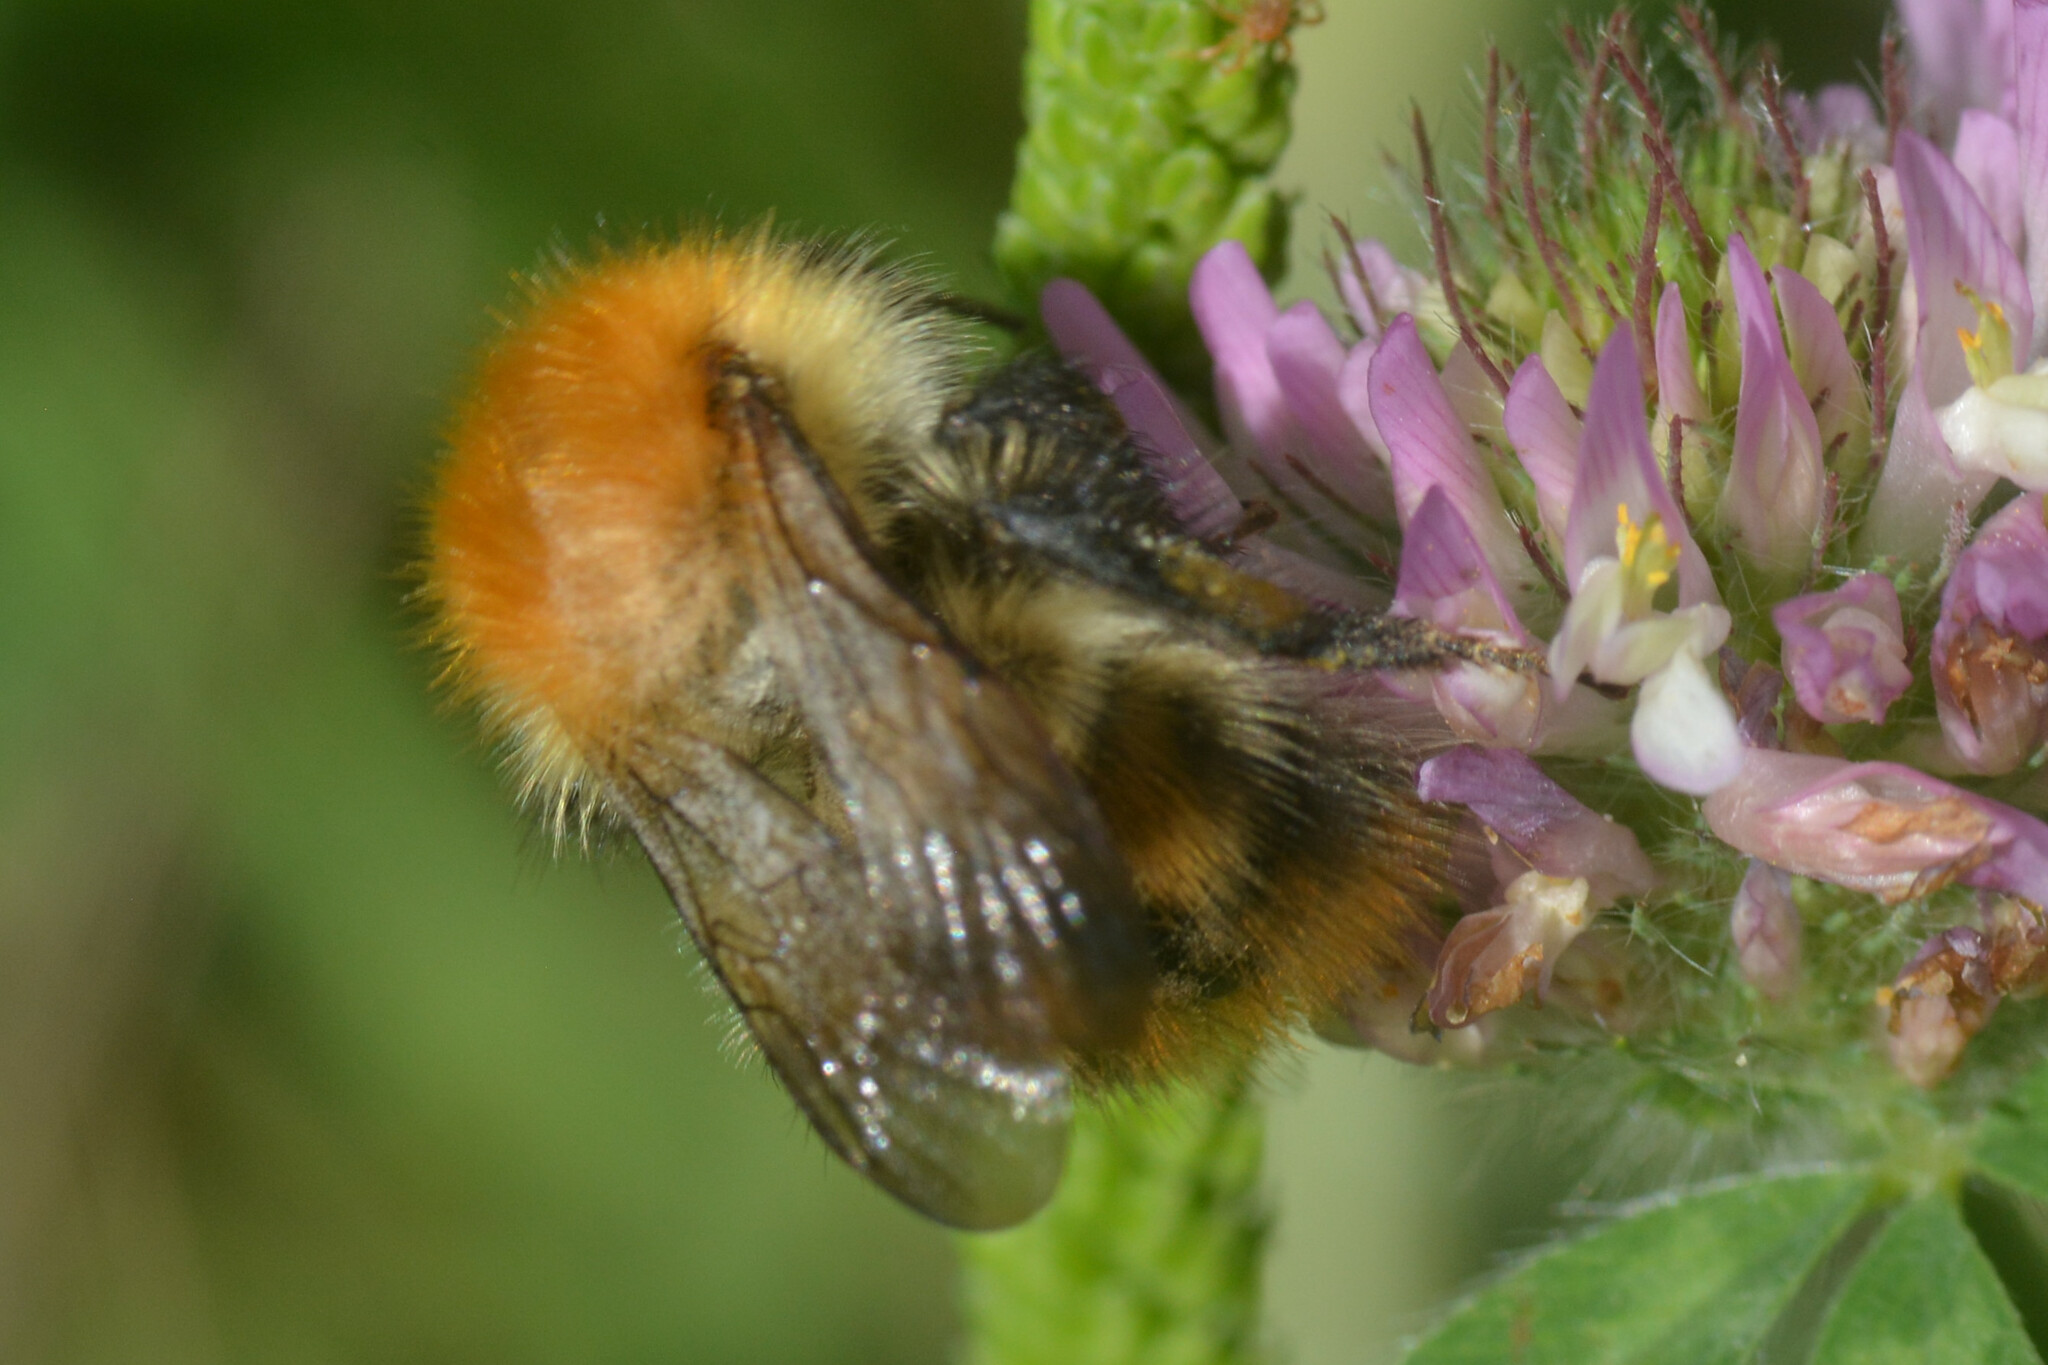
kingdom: Animalia
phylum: Arthropoda
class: Insecta
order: Hymenoptera
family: Apidae
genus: Bombus
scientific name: Bombus pascuorum
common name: Common carder bee
